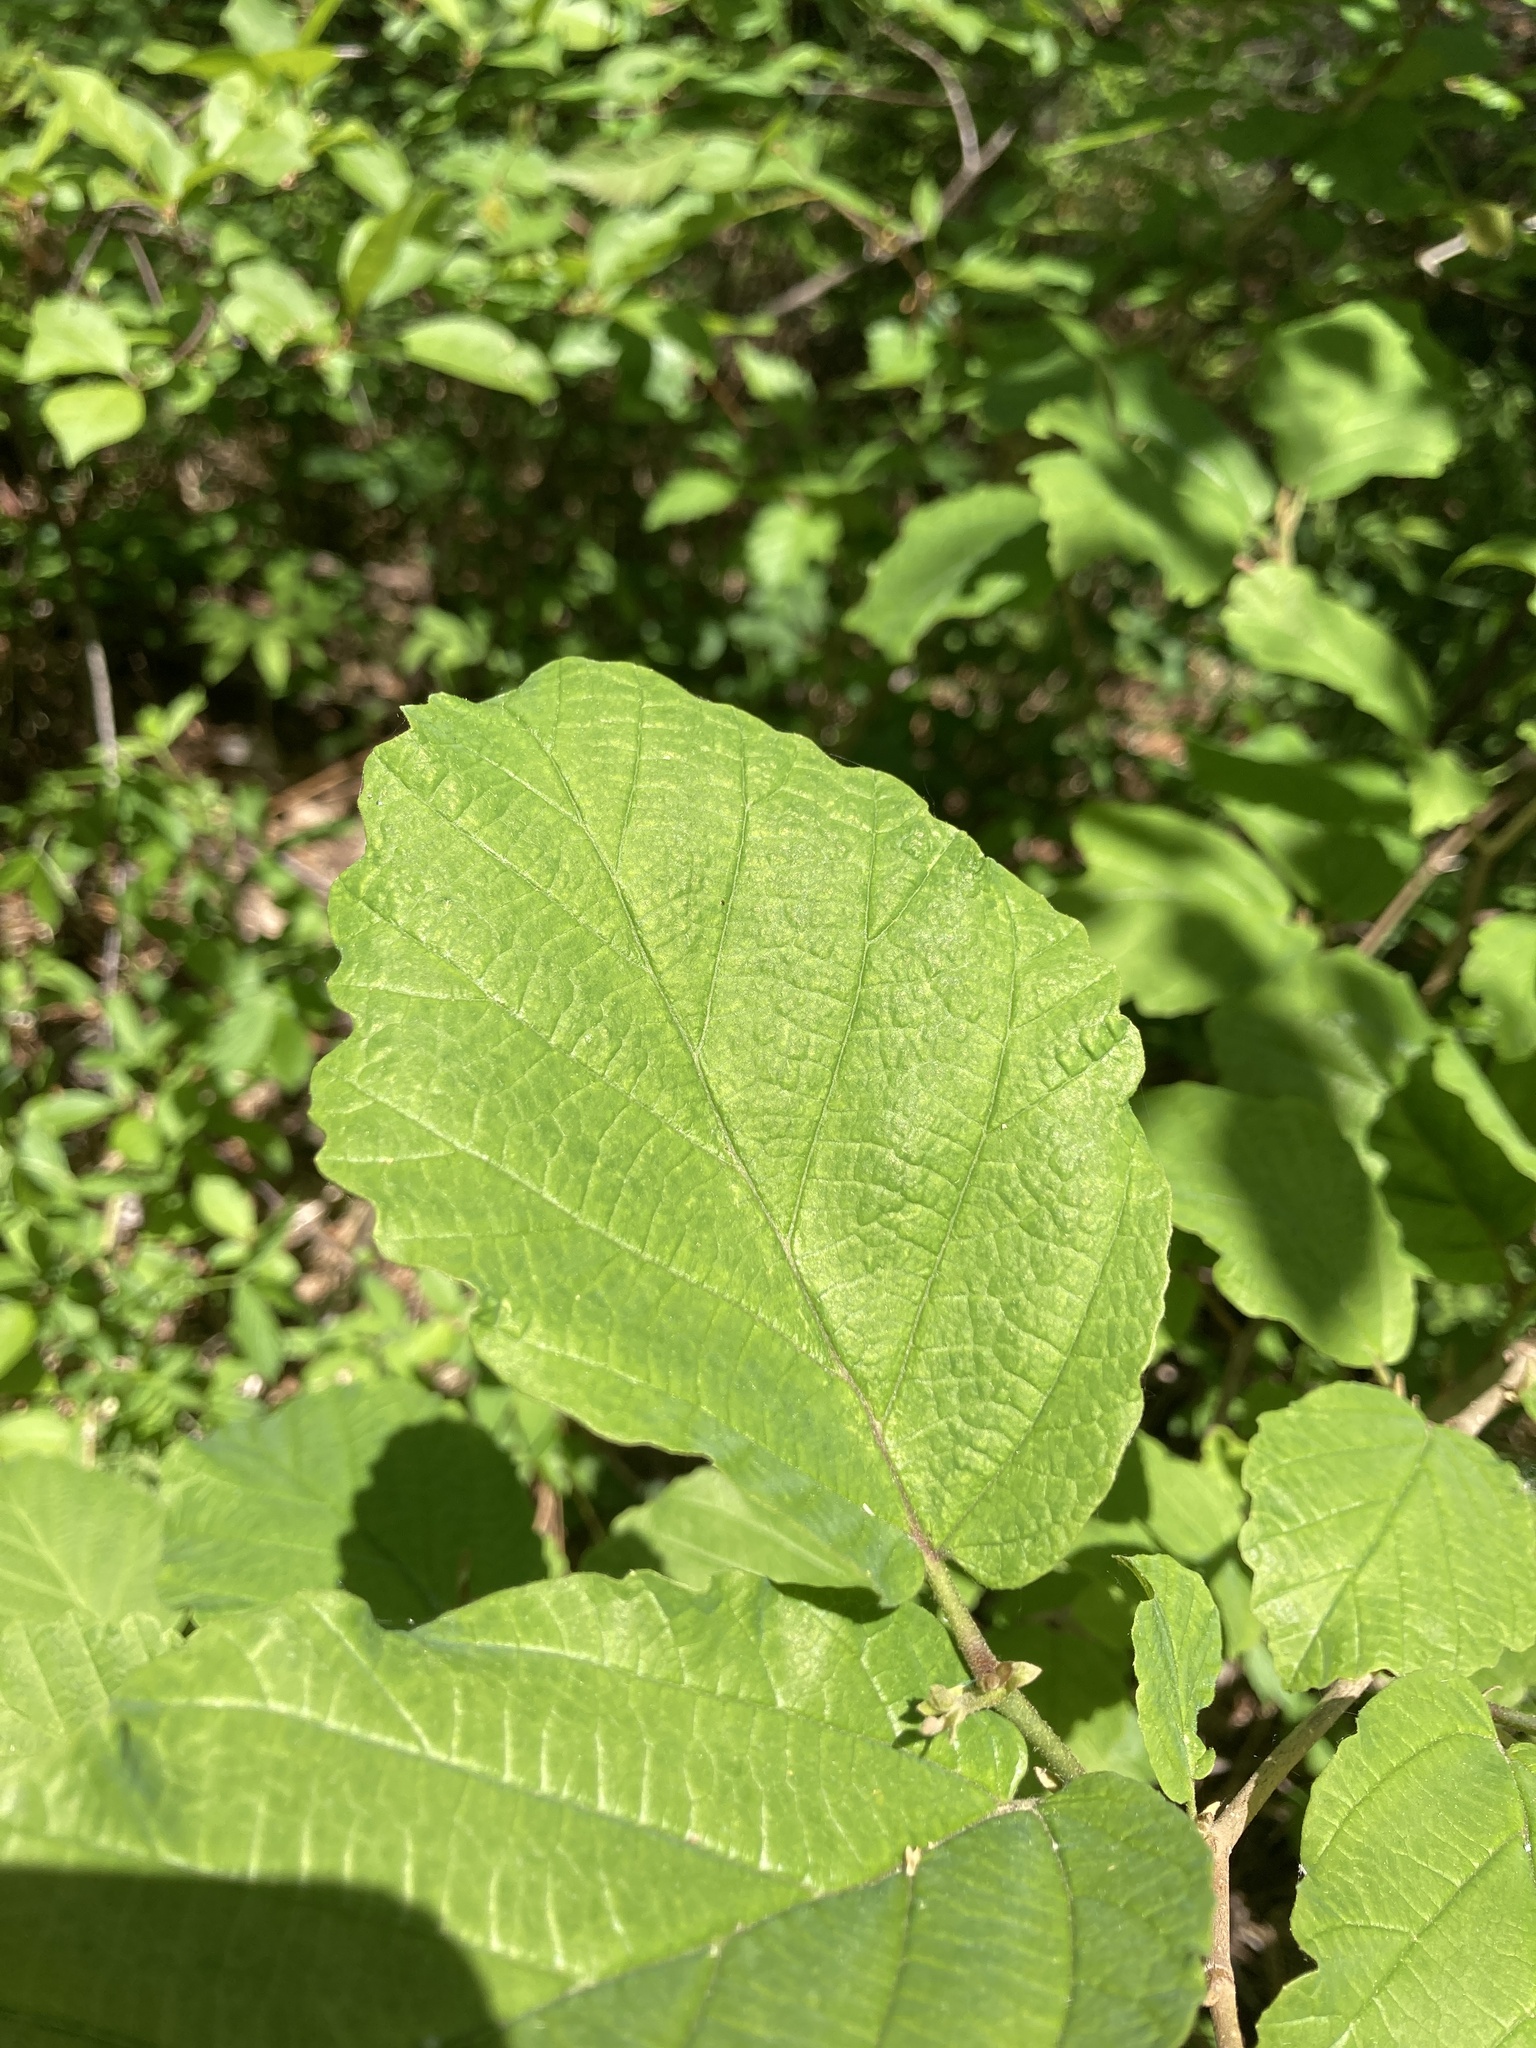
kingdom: Plantae
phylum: Tracheophyta
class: Magnoliopsida
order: Saxifragales
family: Hamamelidaceae
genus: Hamamelis
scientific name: Hamamelis virginiana
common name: Witch-hazel
